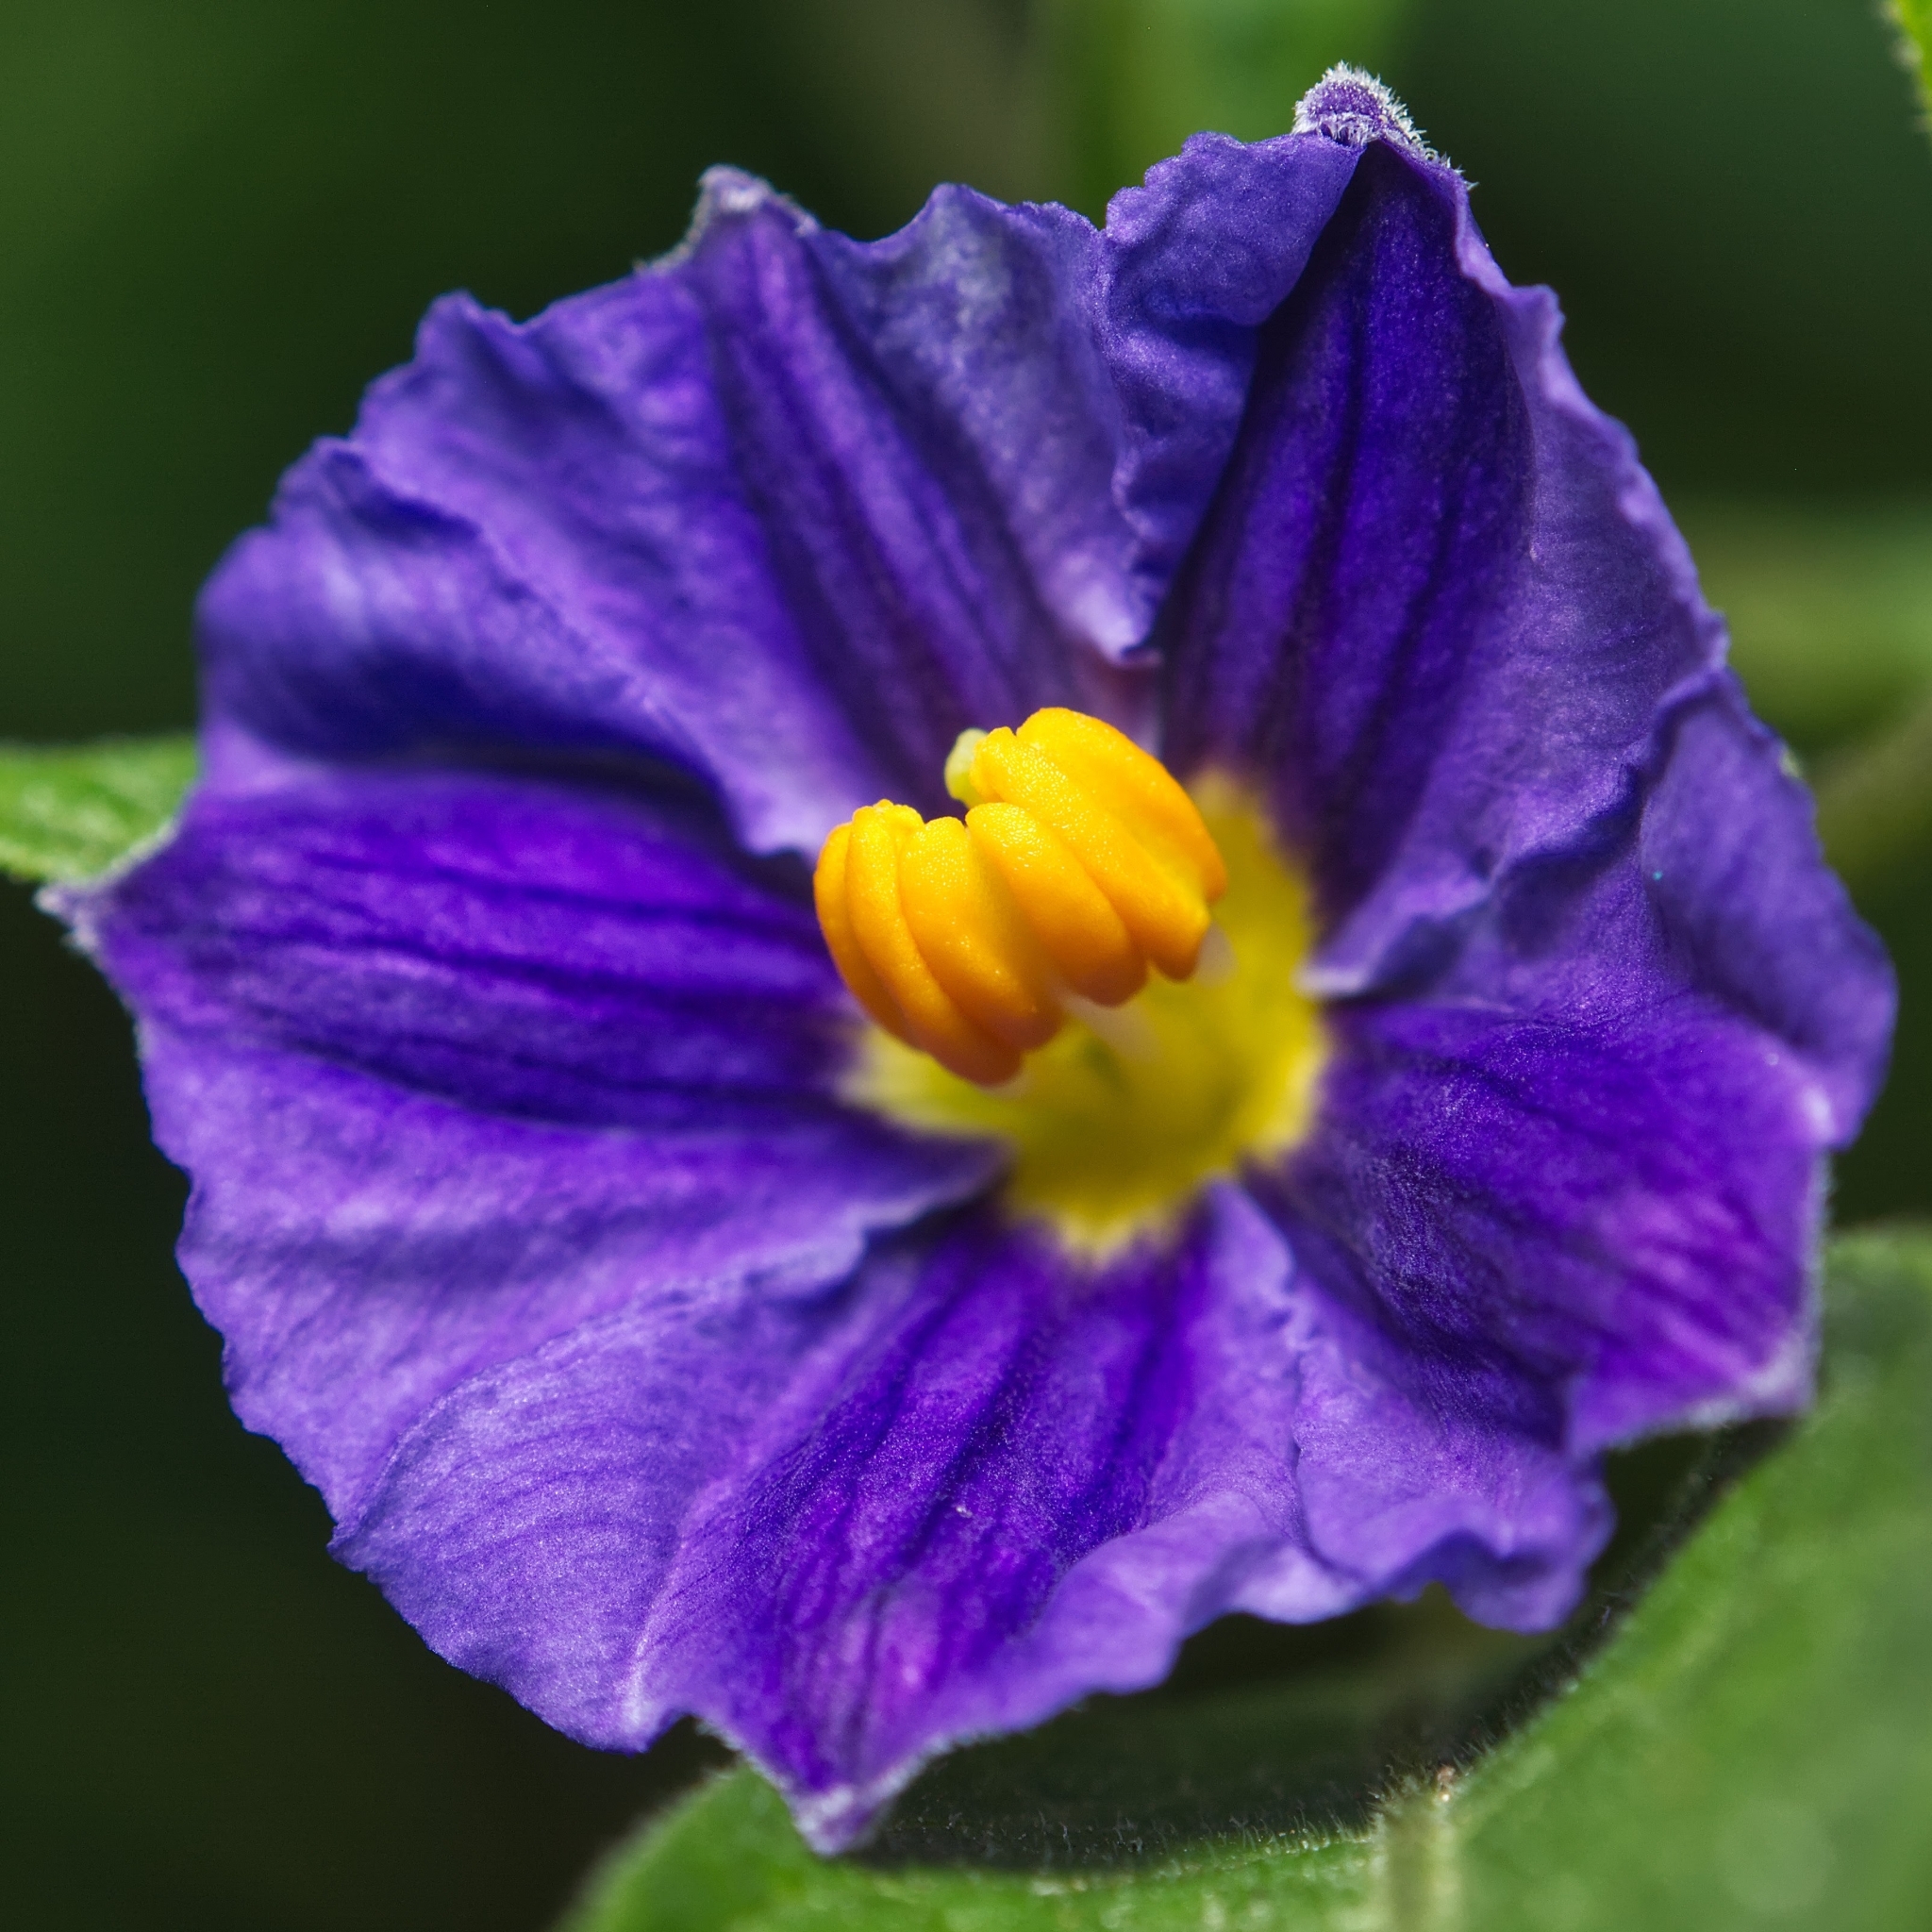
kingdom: Plantae
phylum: Tracheophyta
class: Magnoliopsida
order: Solanales
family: Solanaceae
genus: Lycianthes
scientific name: Lycianthes rantonnetii
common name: Blue potatobush
